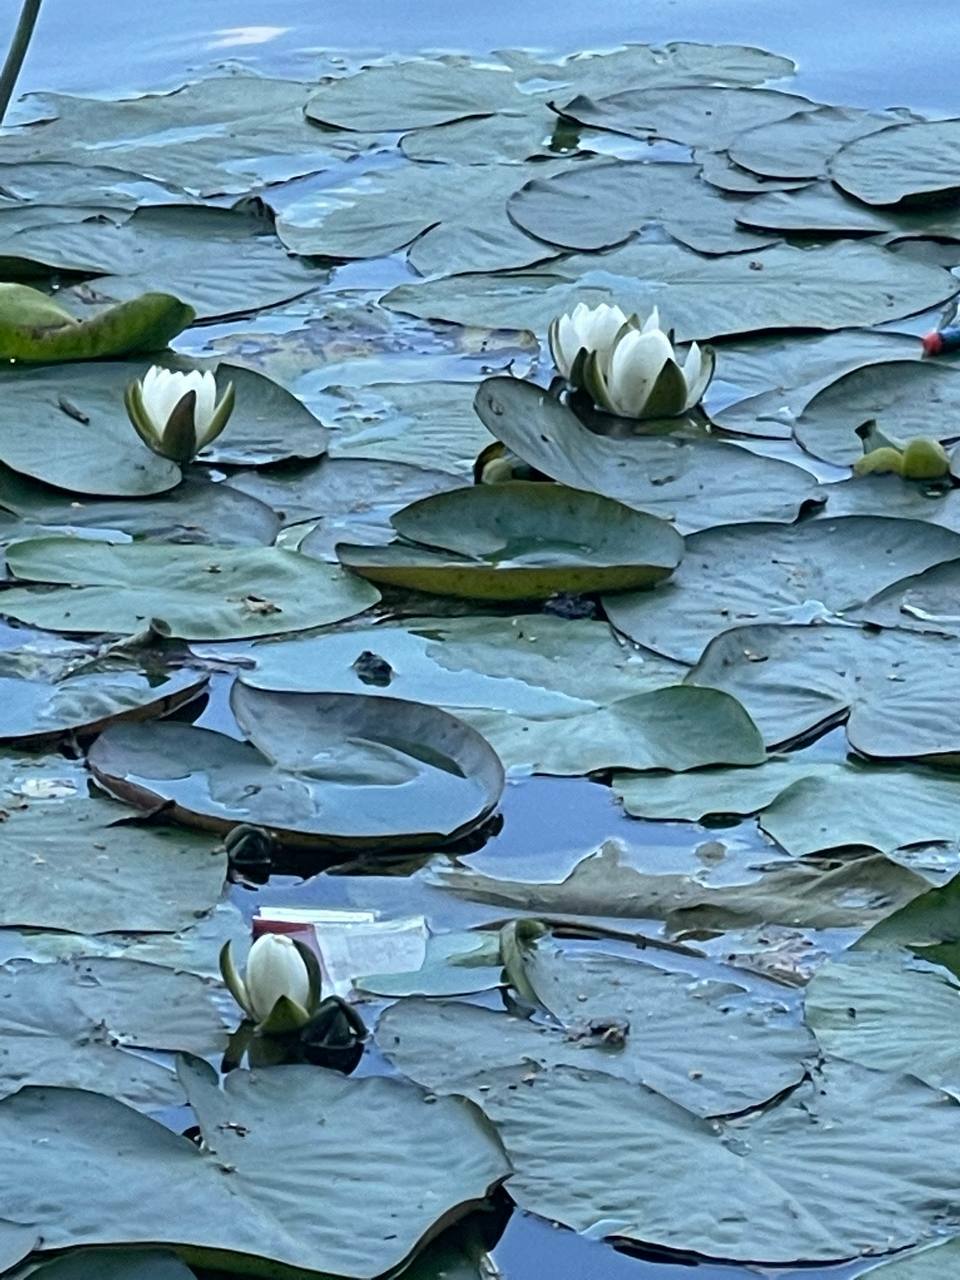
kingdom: Plantae
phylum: Tracheophyta
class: Magnoliopsida
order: Nymphaeales
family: Nymphaeaceae
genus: Nymphaea
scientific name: Nymphaea candida
